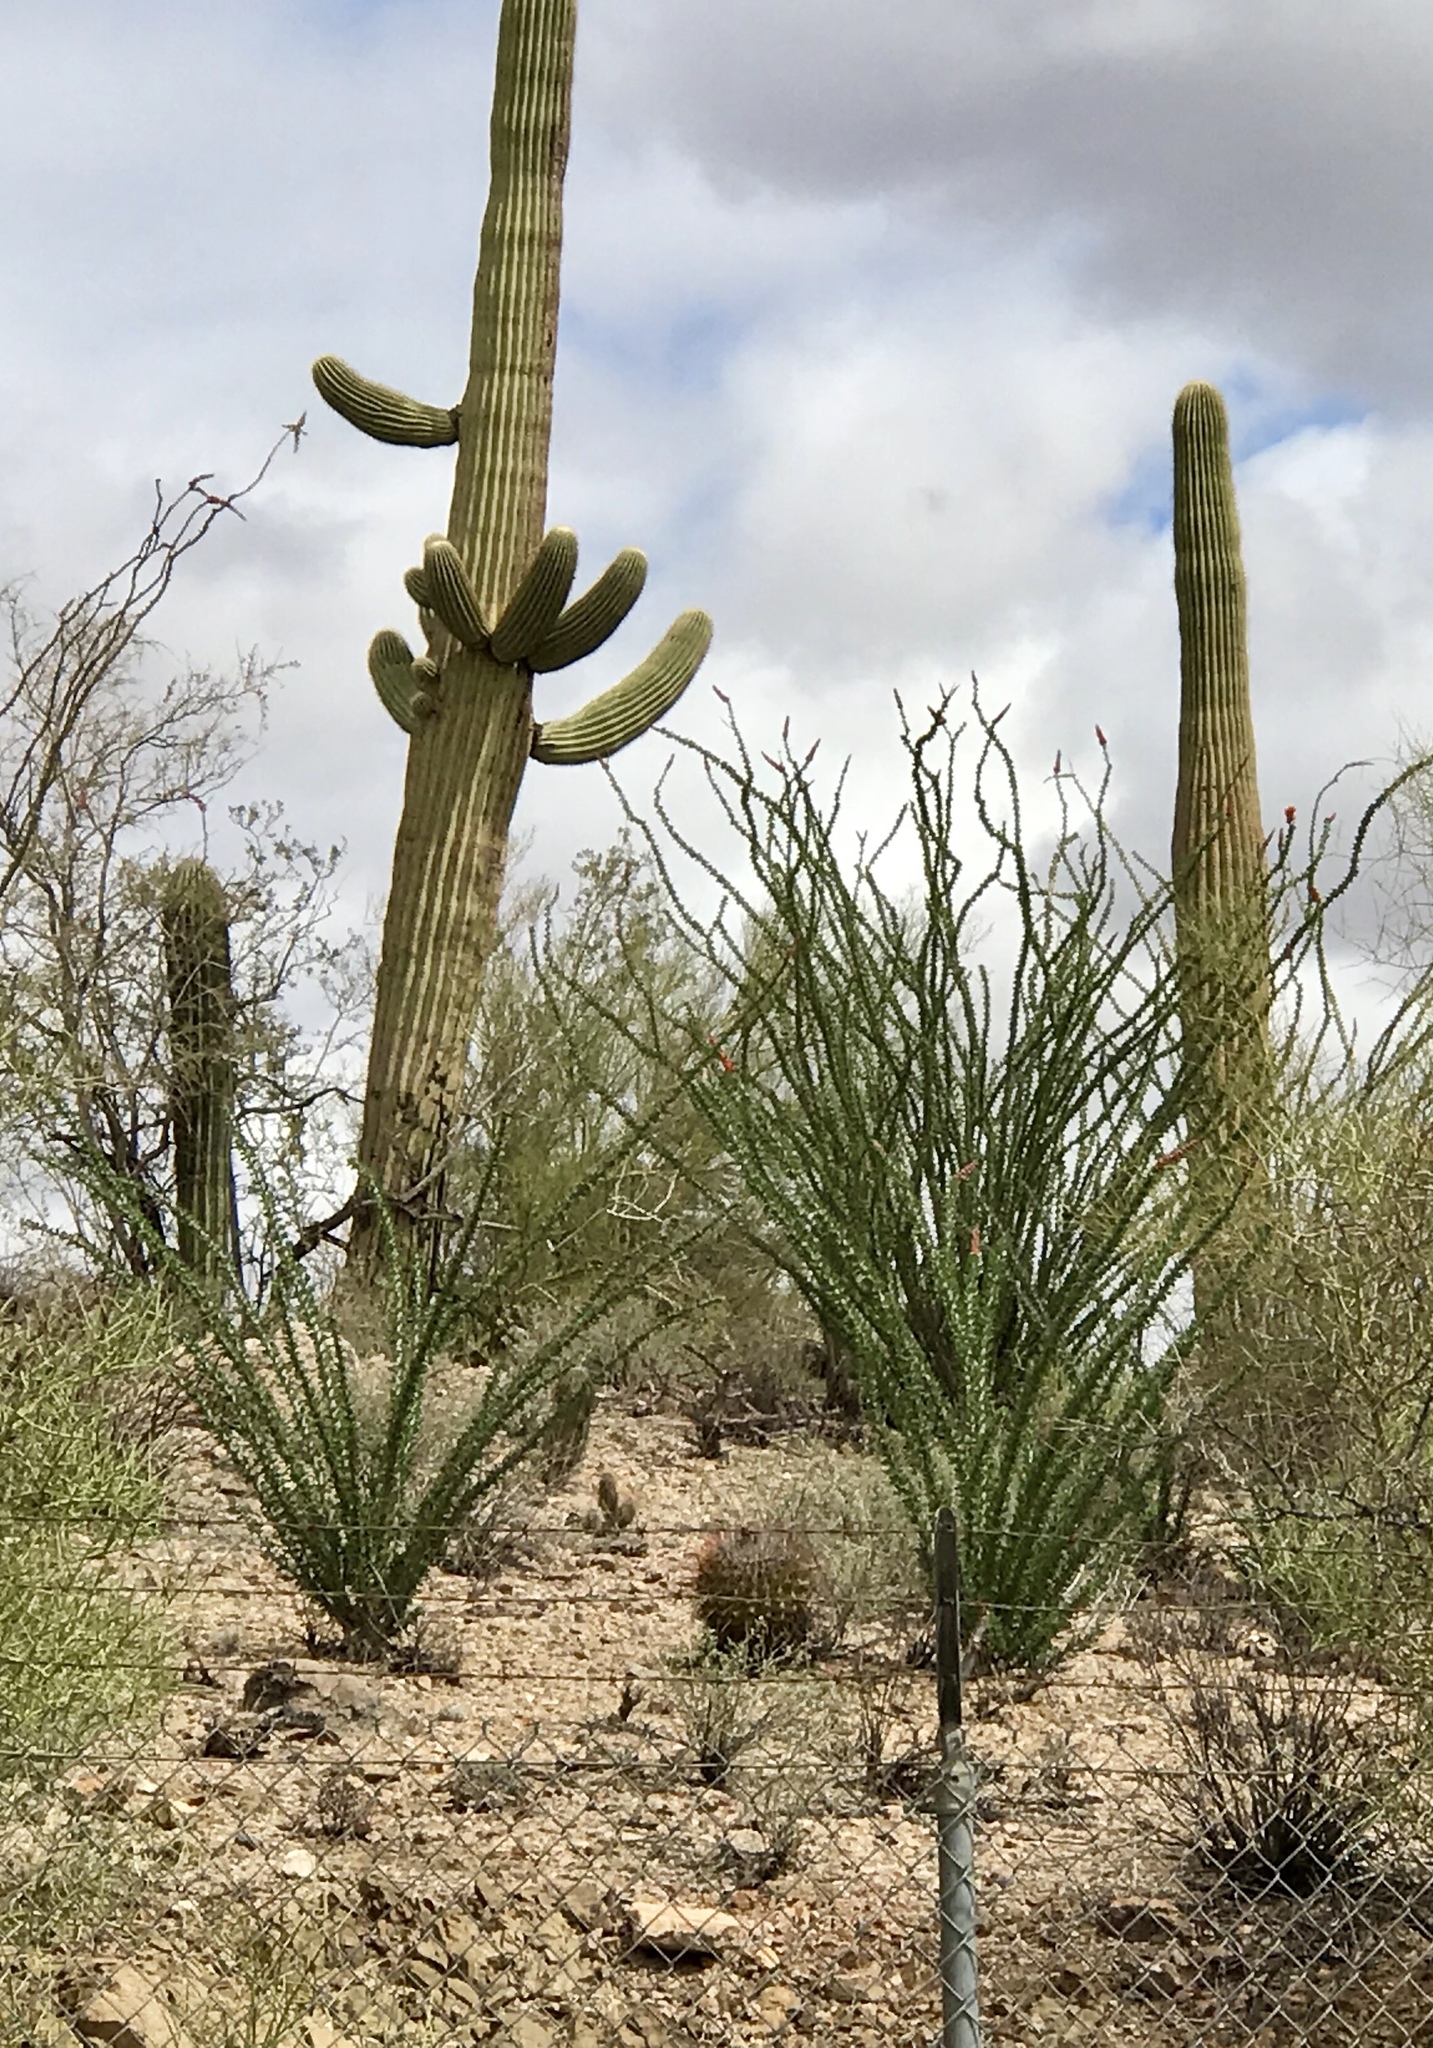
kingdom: Plantae
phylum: Tracheophyta
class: Magnoliopsida
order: Ericales
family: Fouquieriaceae
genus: Fouquieria
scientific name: Fouquieria splendens
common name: Vine-cactus
